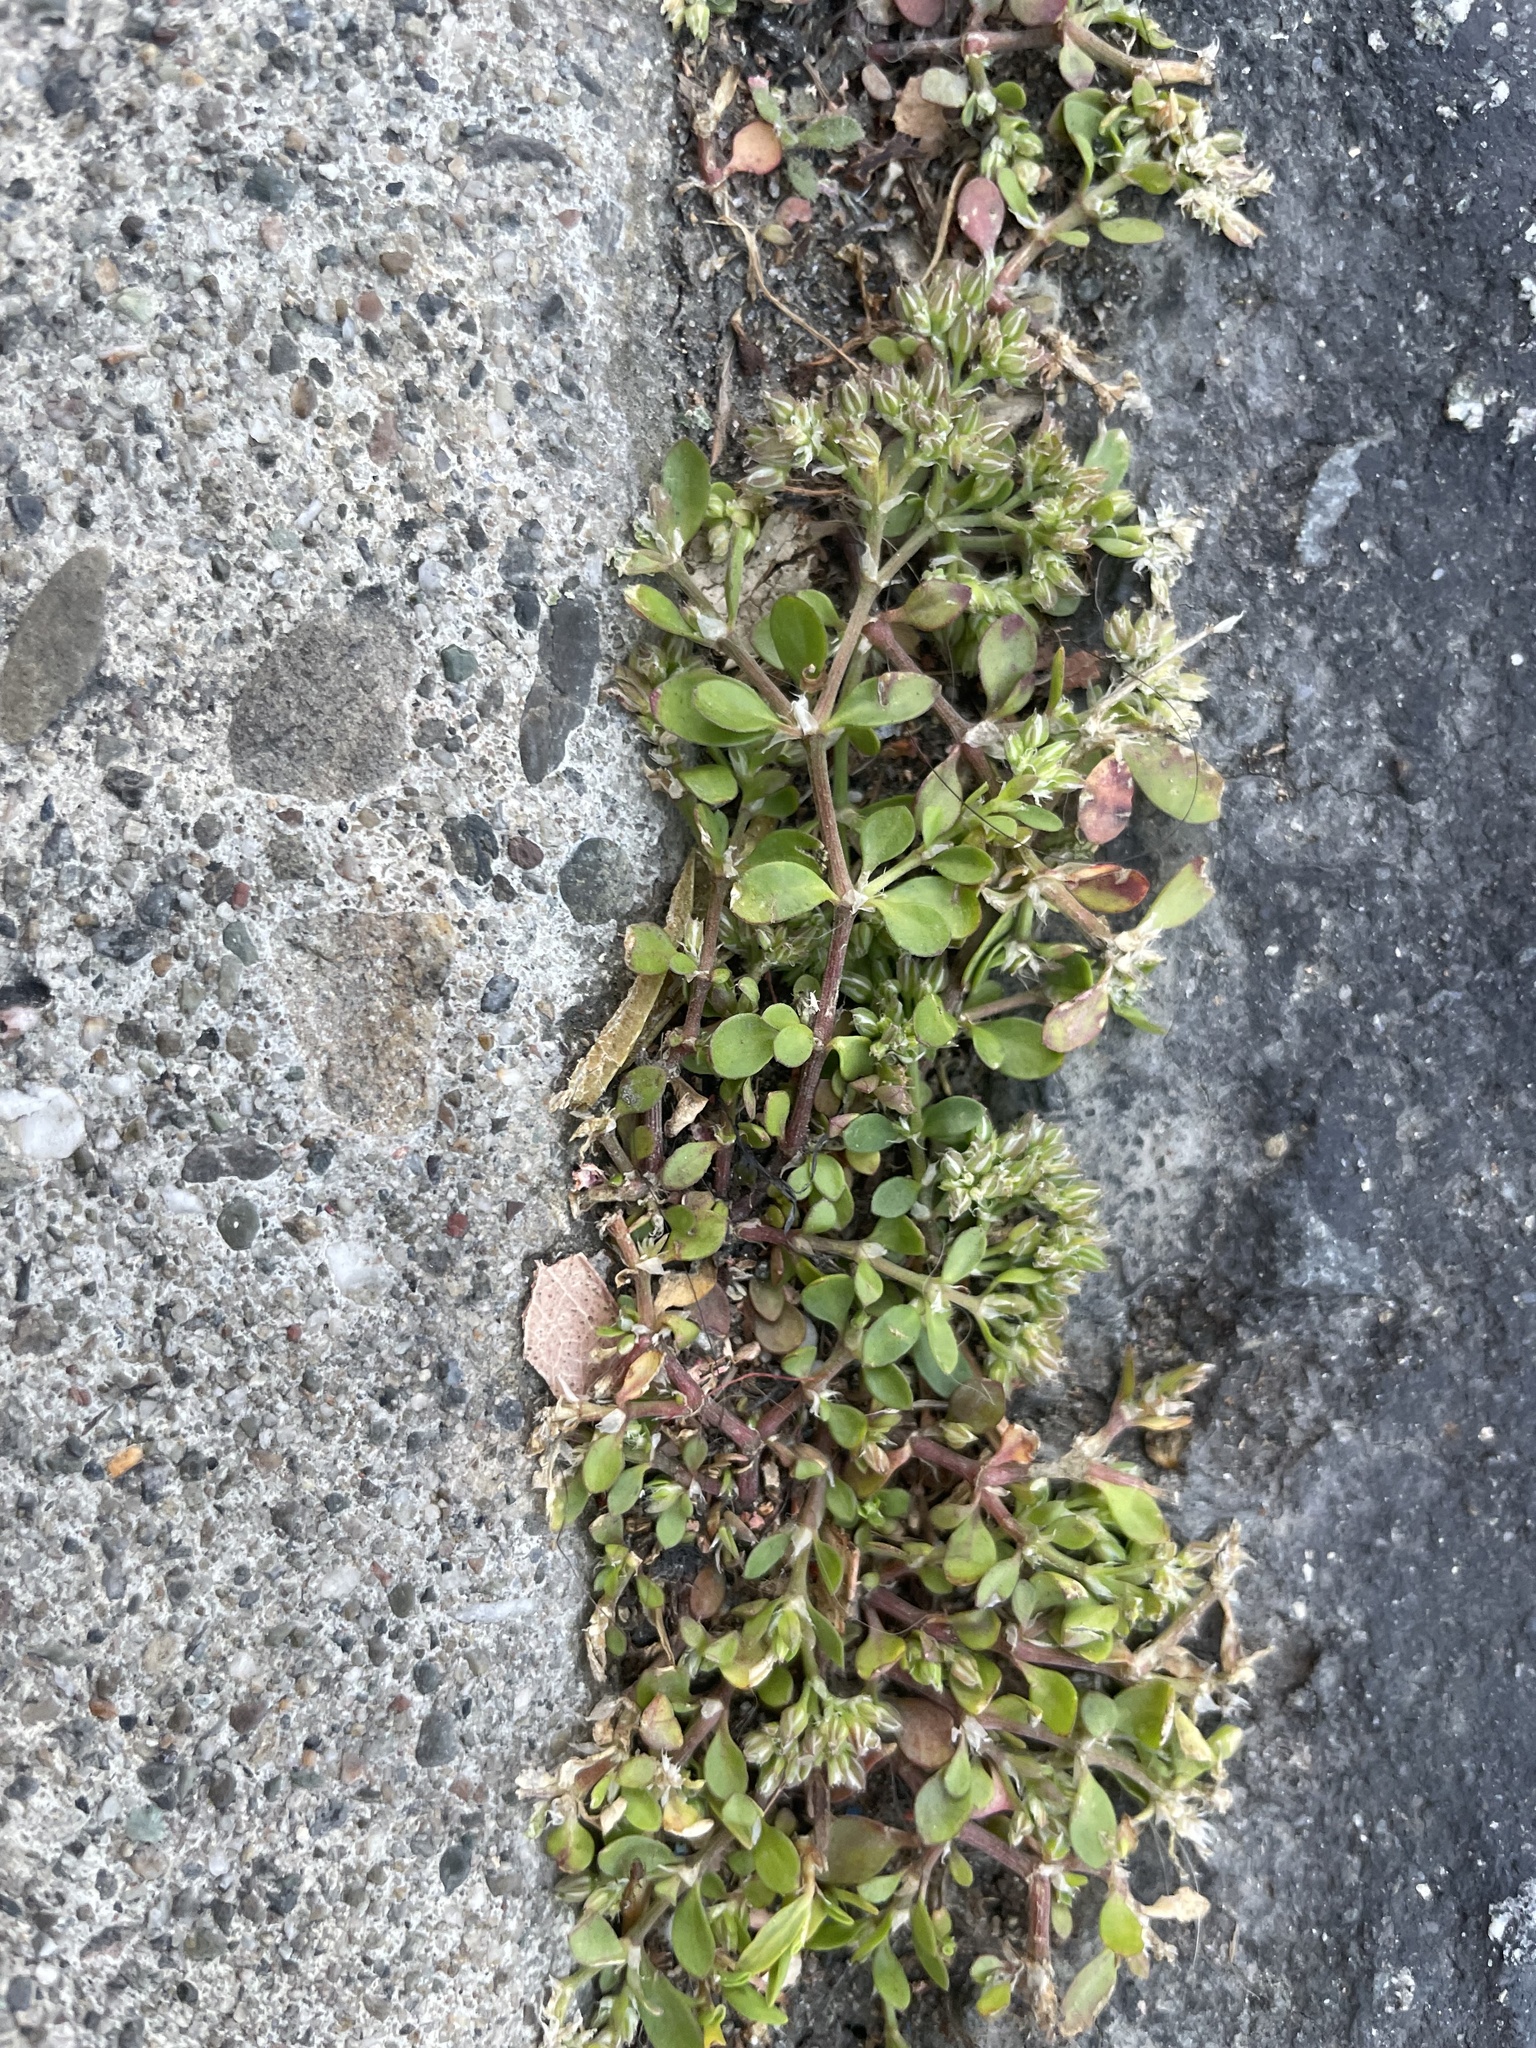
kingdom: Plantae
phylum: Tracheophyta
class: Magnoliopsida
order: Caryophyllales
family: Caryophyllaceae
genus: Polycarpon
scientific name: Polycarpon tetraphyllum
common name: Four-leaved all-seed
